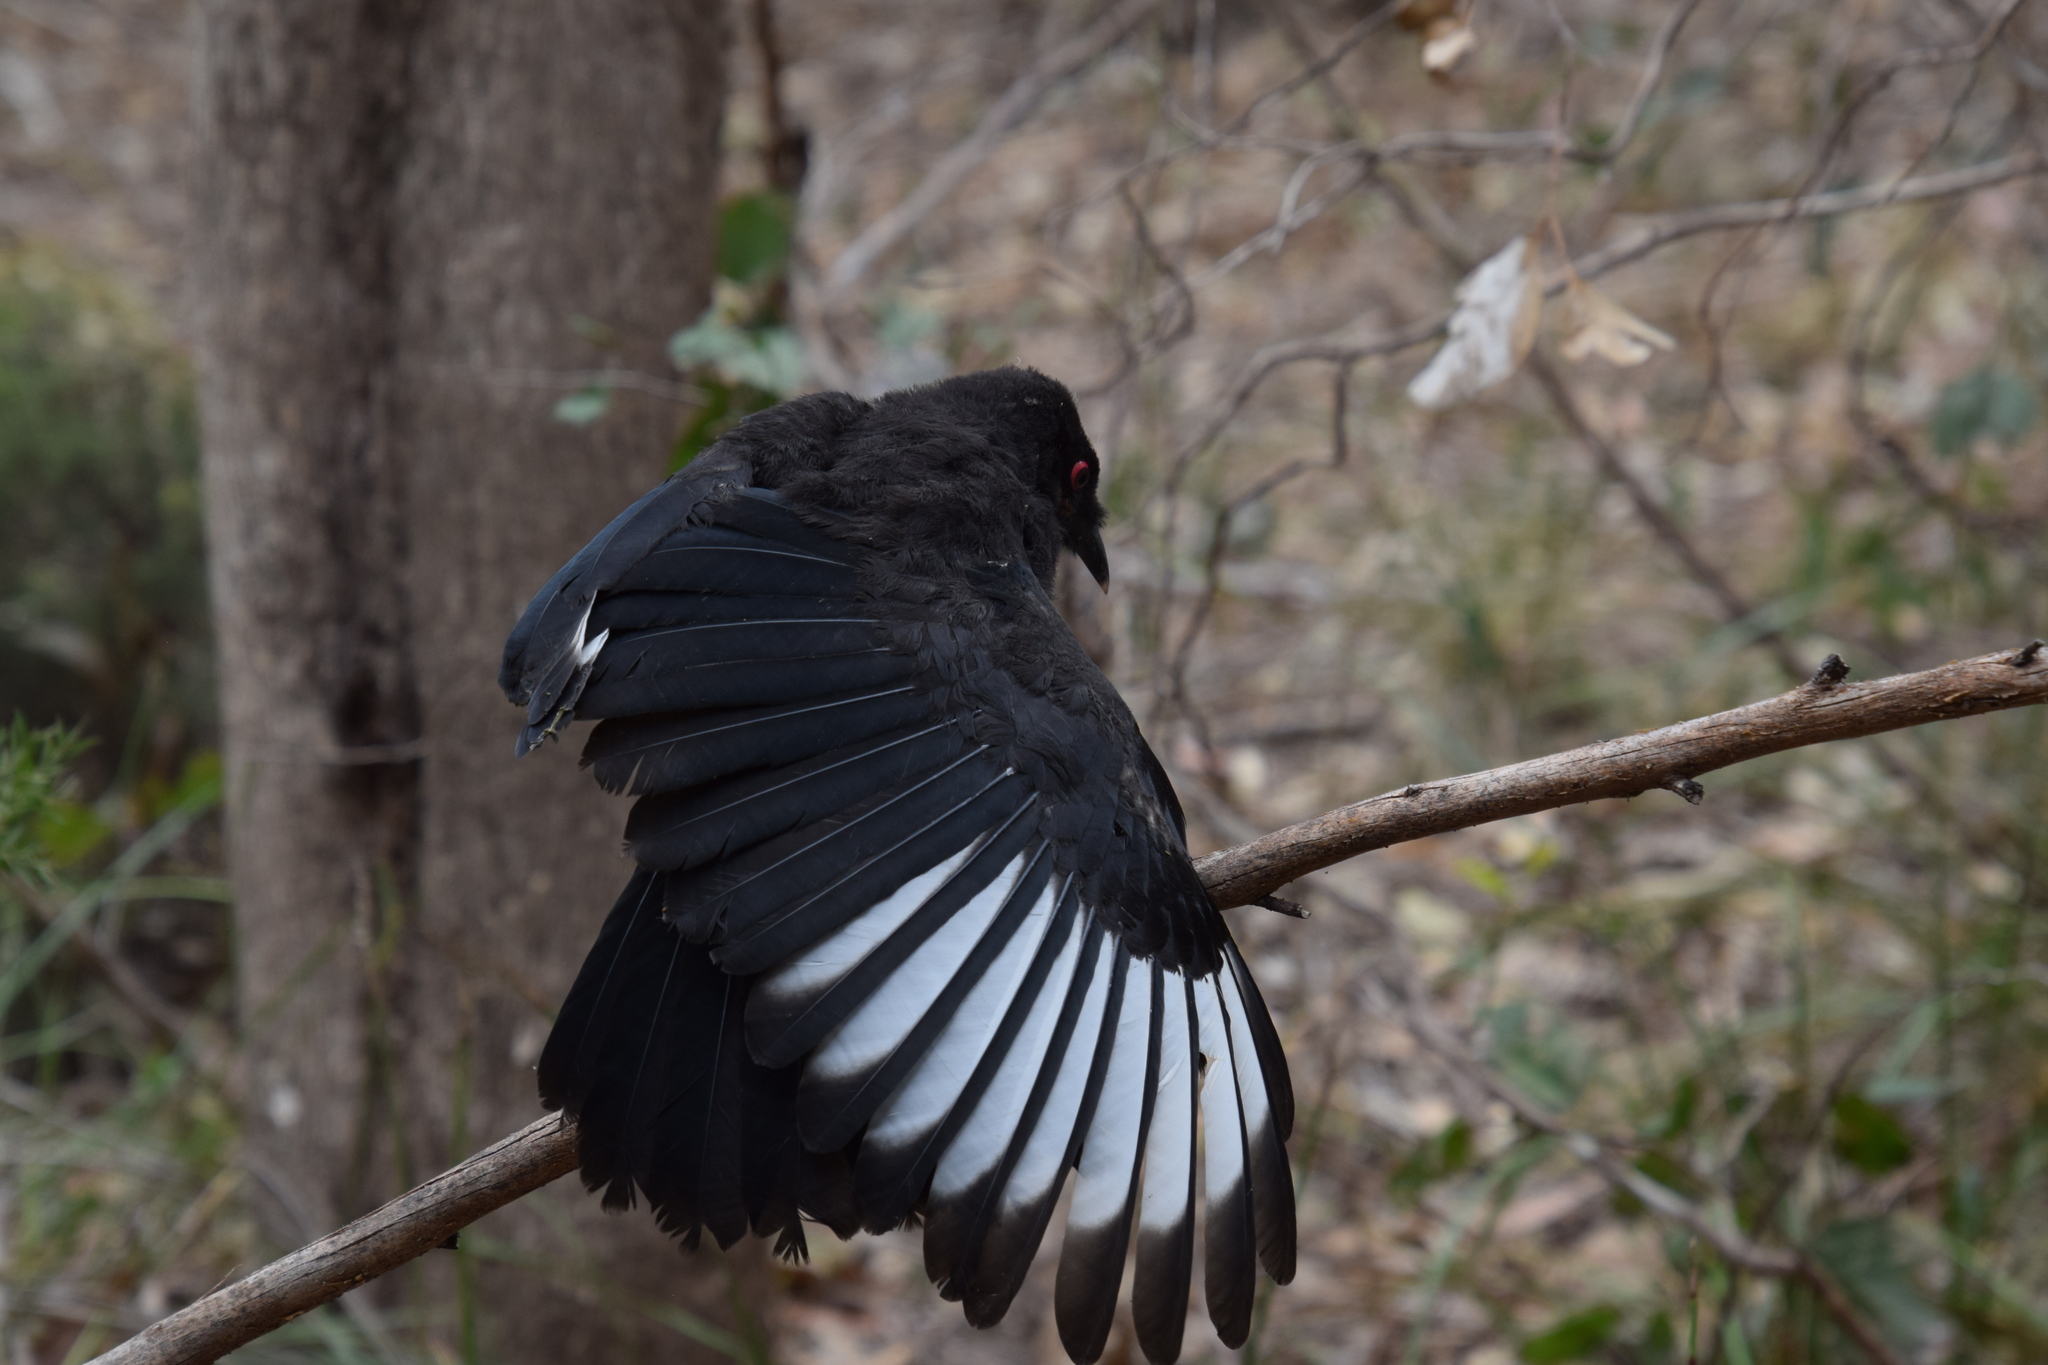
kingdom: Animalia
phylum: Chordata
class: Aves
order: Passeriformes
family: Corcoracidae
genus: Corcorax
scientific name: Corcorax melanoramphos
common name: White-winged chough
